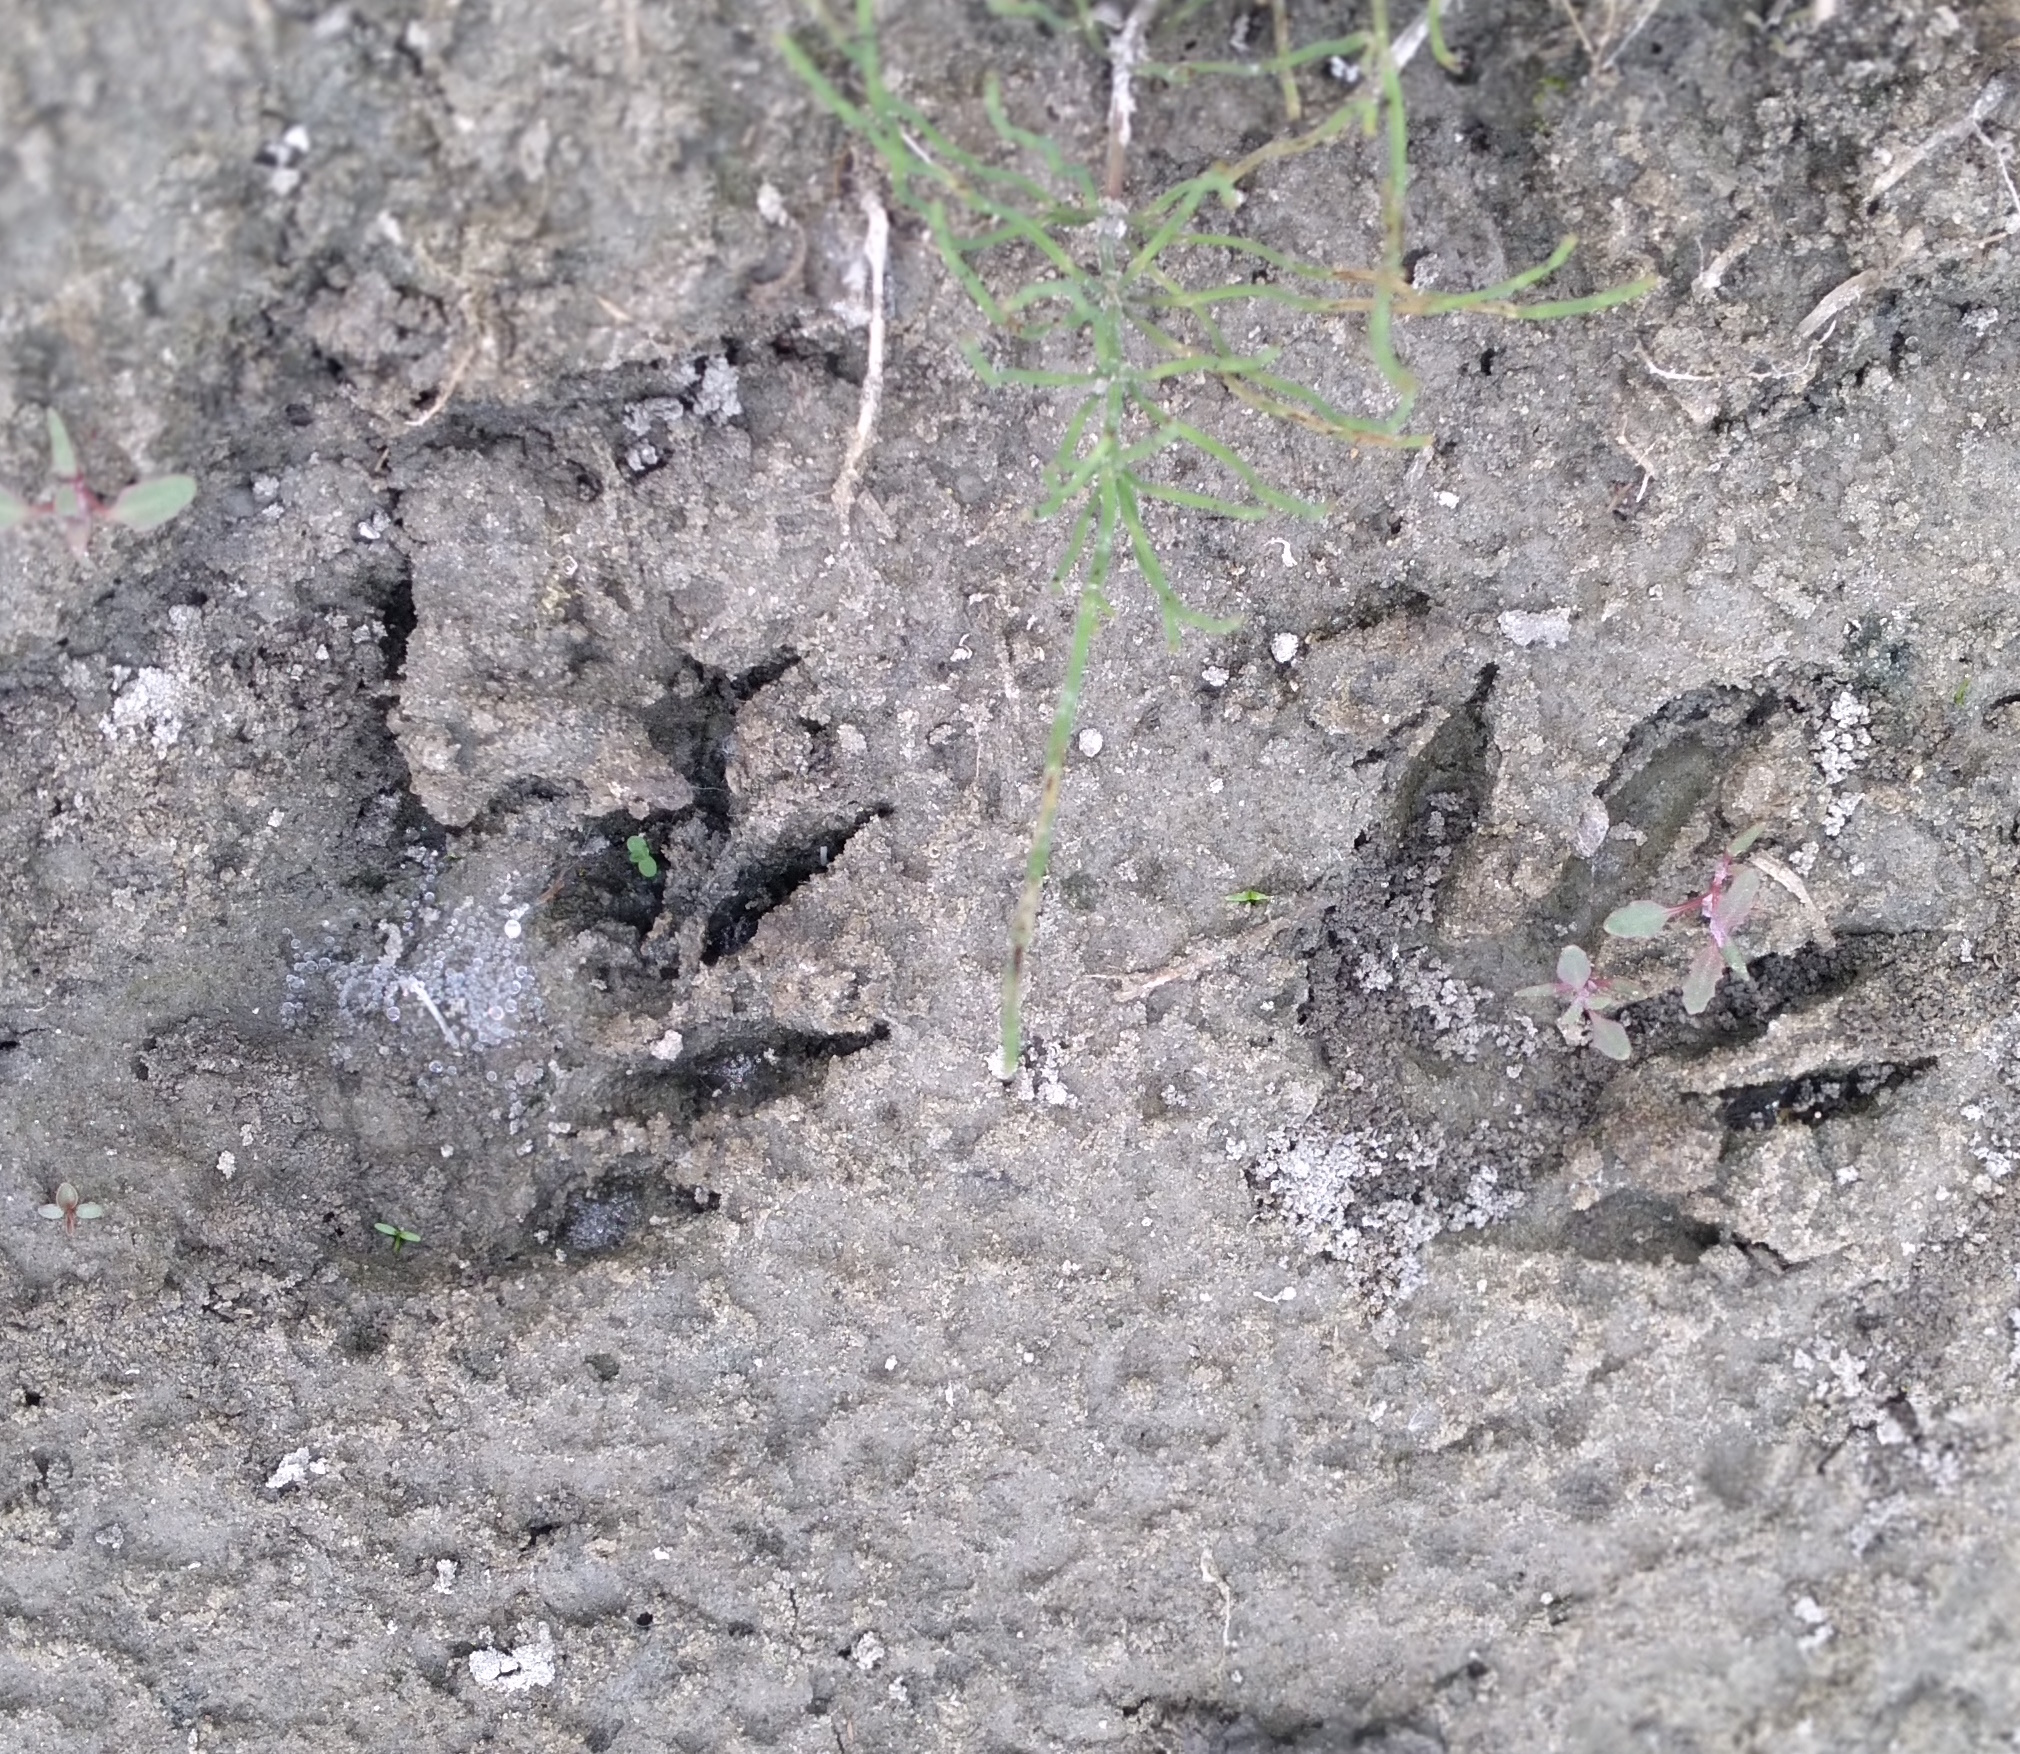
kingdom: Animalia
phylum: Chordata
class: Mammalia
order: Carnivora
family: Procyonidae
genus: Procyon
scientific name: Procyon lotor
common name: Raccoon
